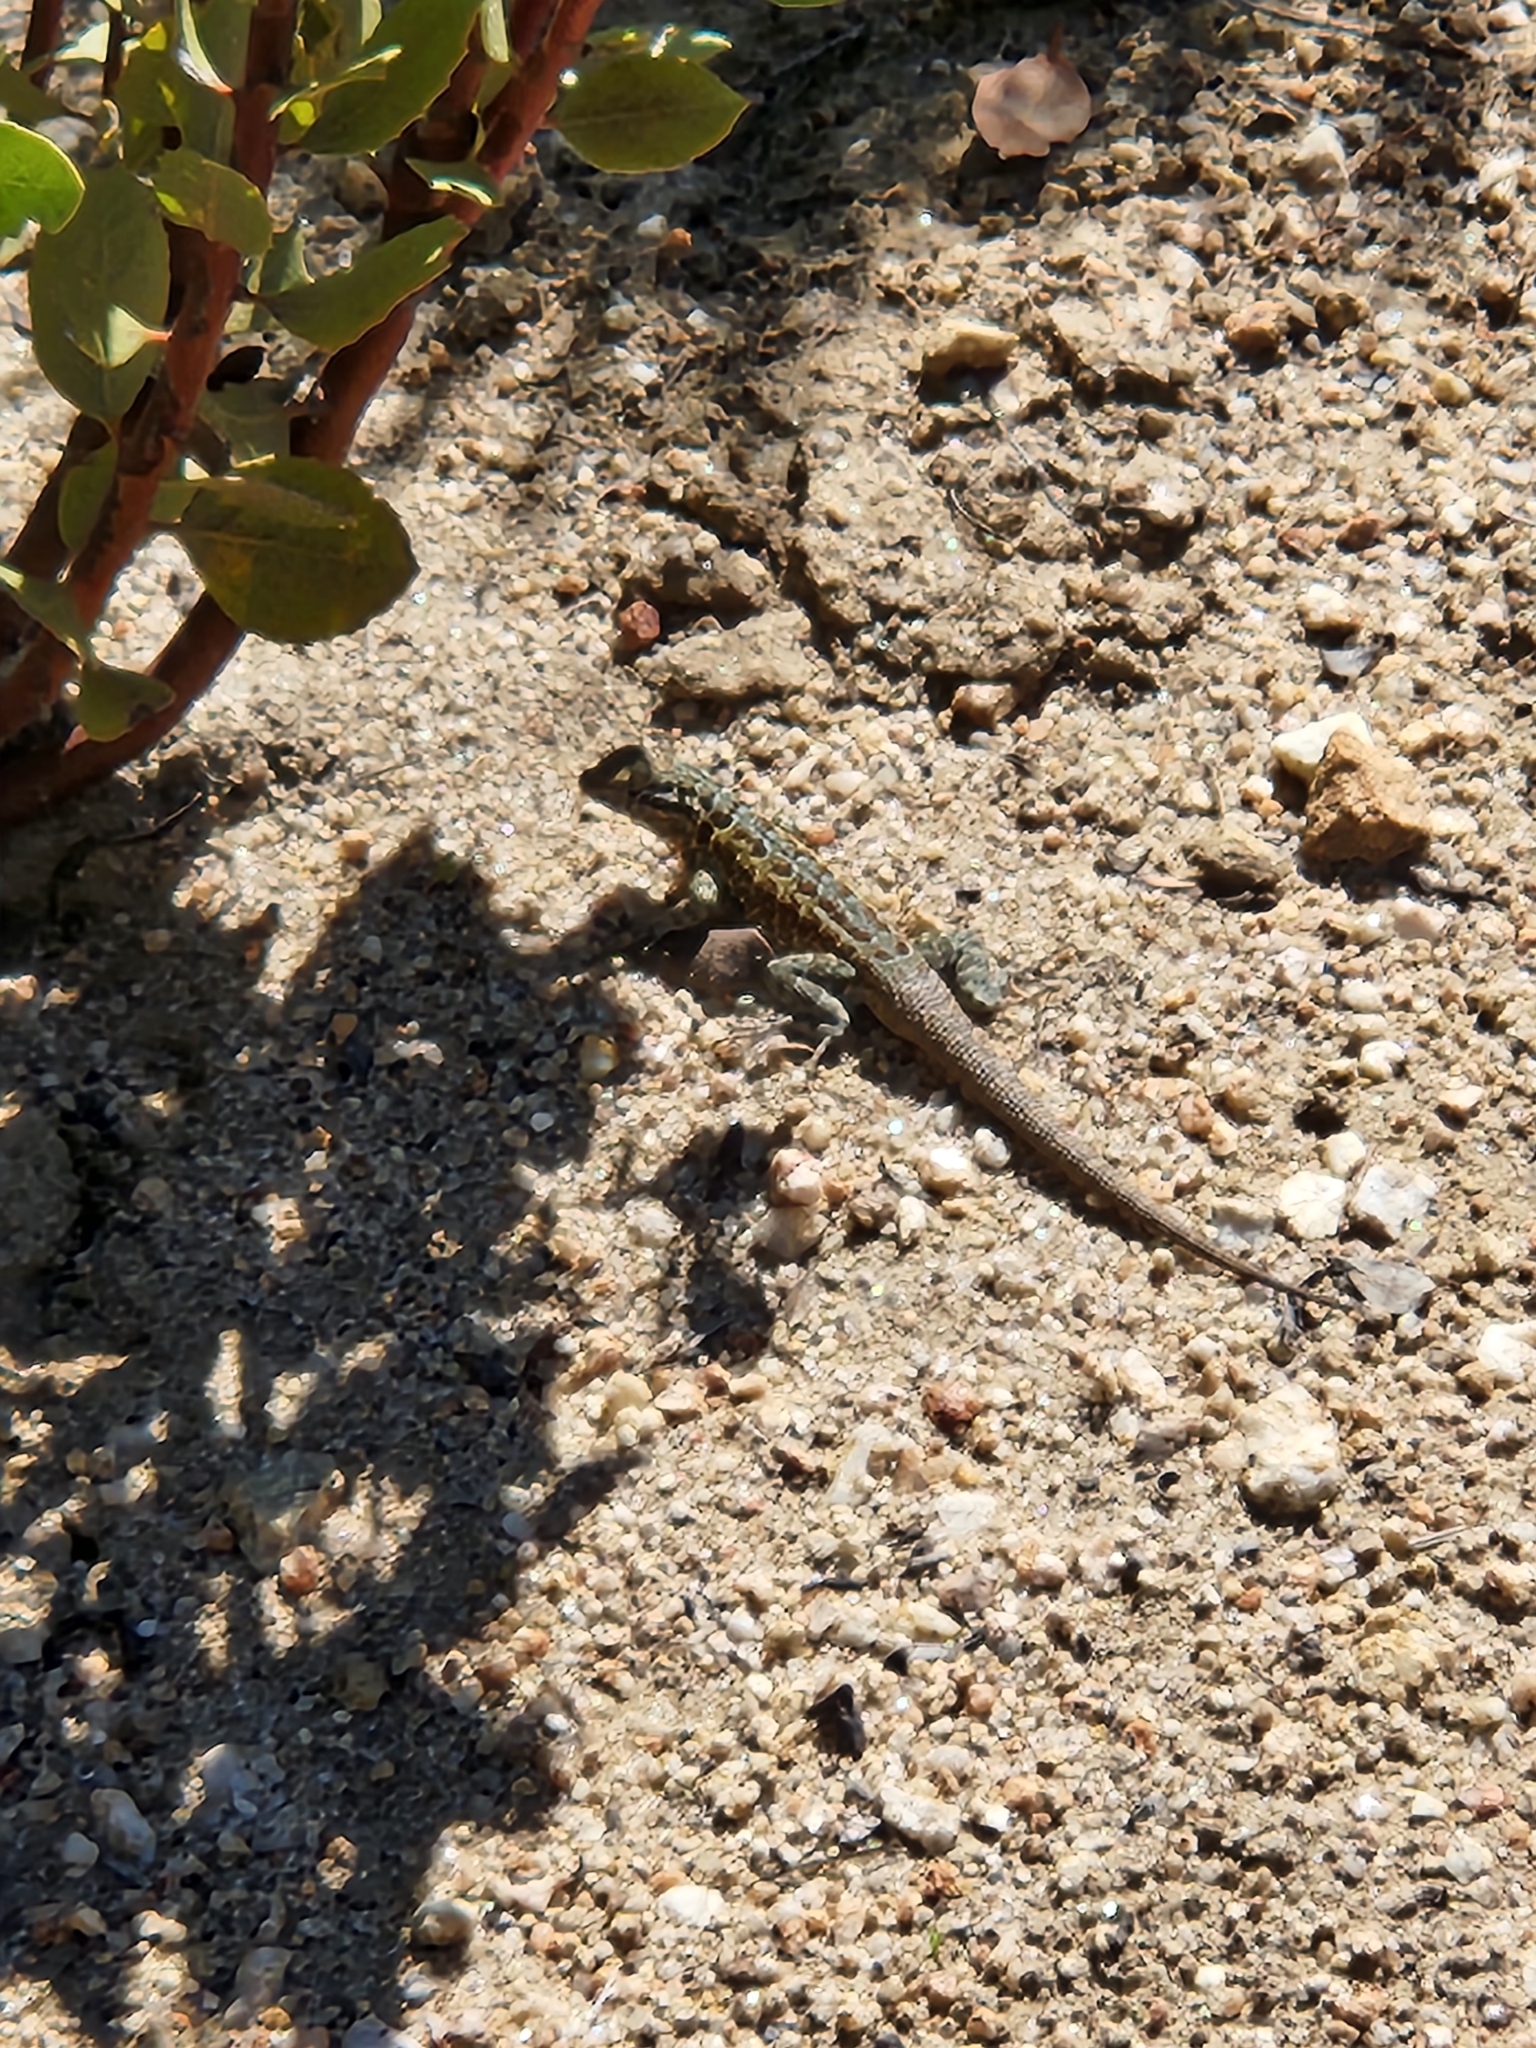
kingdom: Animalia
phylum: Chordata
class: Squamata
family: Phrynosomatidae
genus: Uta
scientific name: Uta stansburiana
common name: Side-blotched lizard
